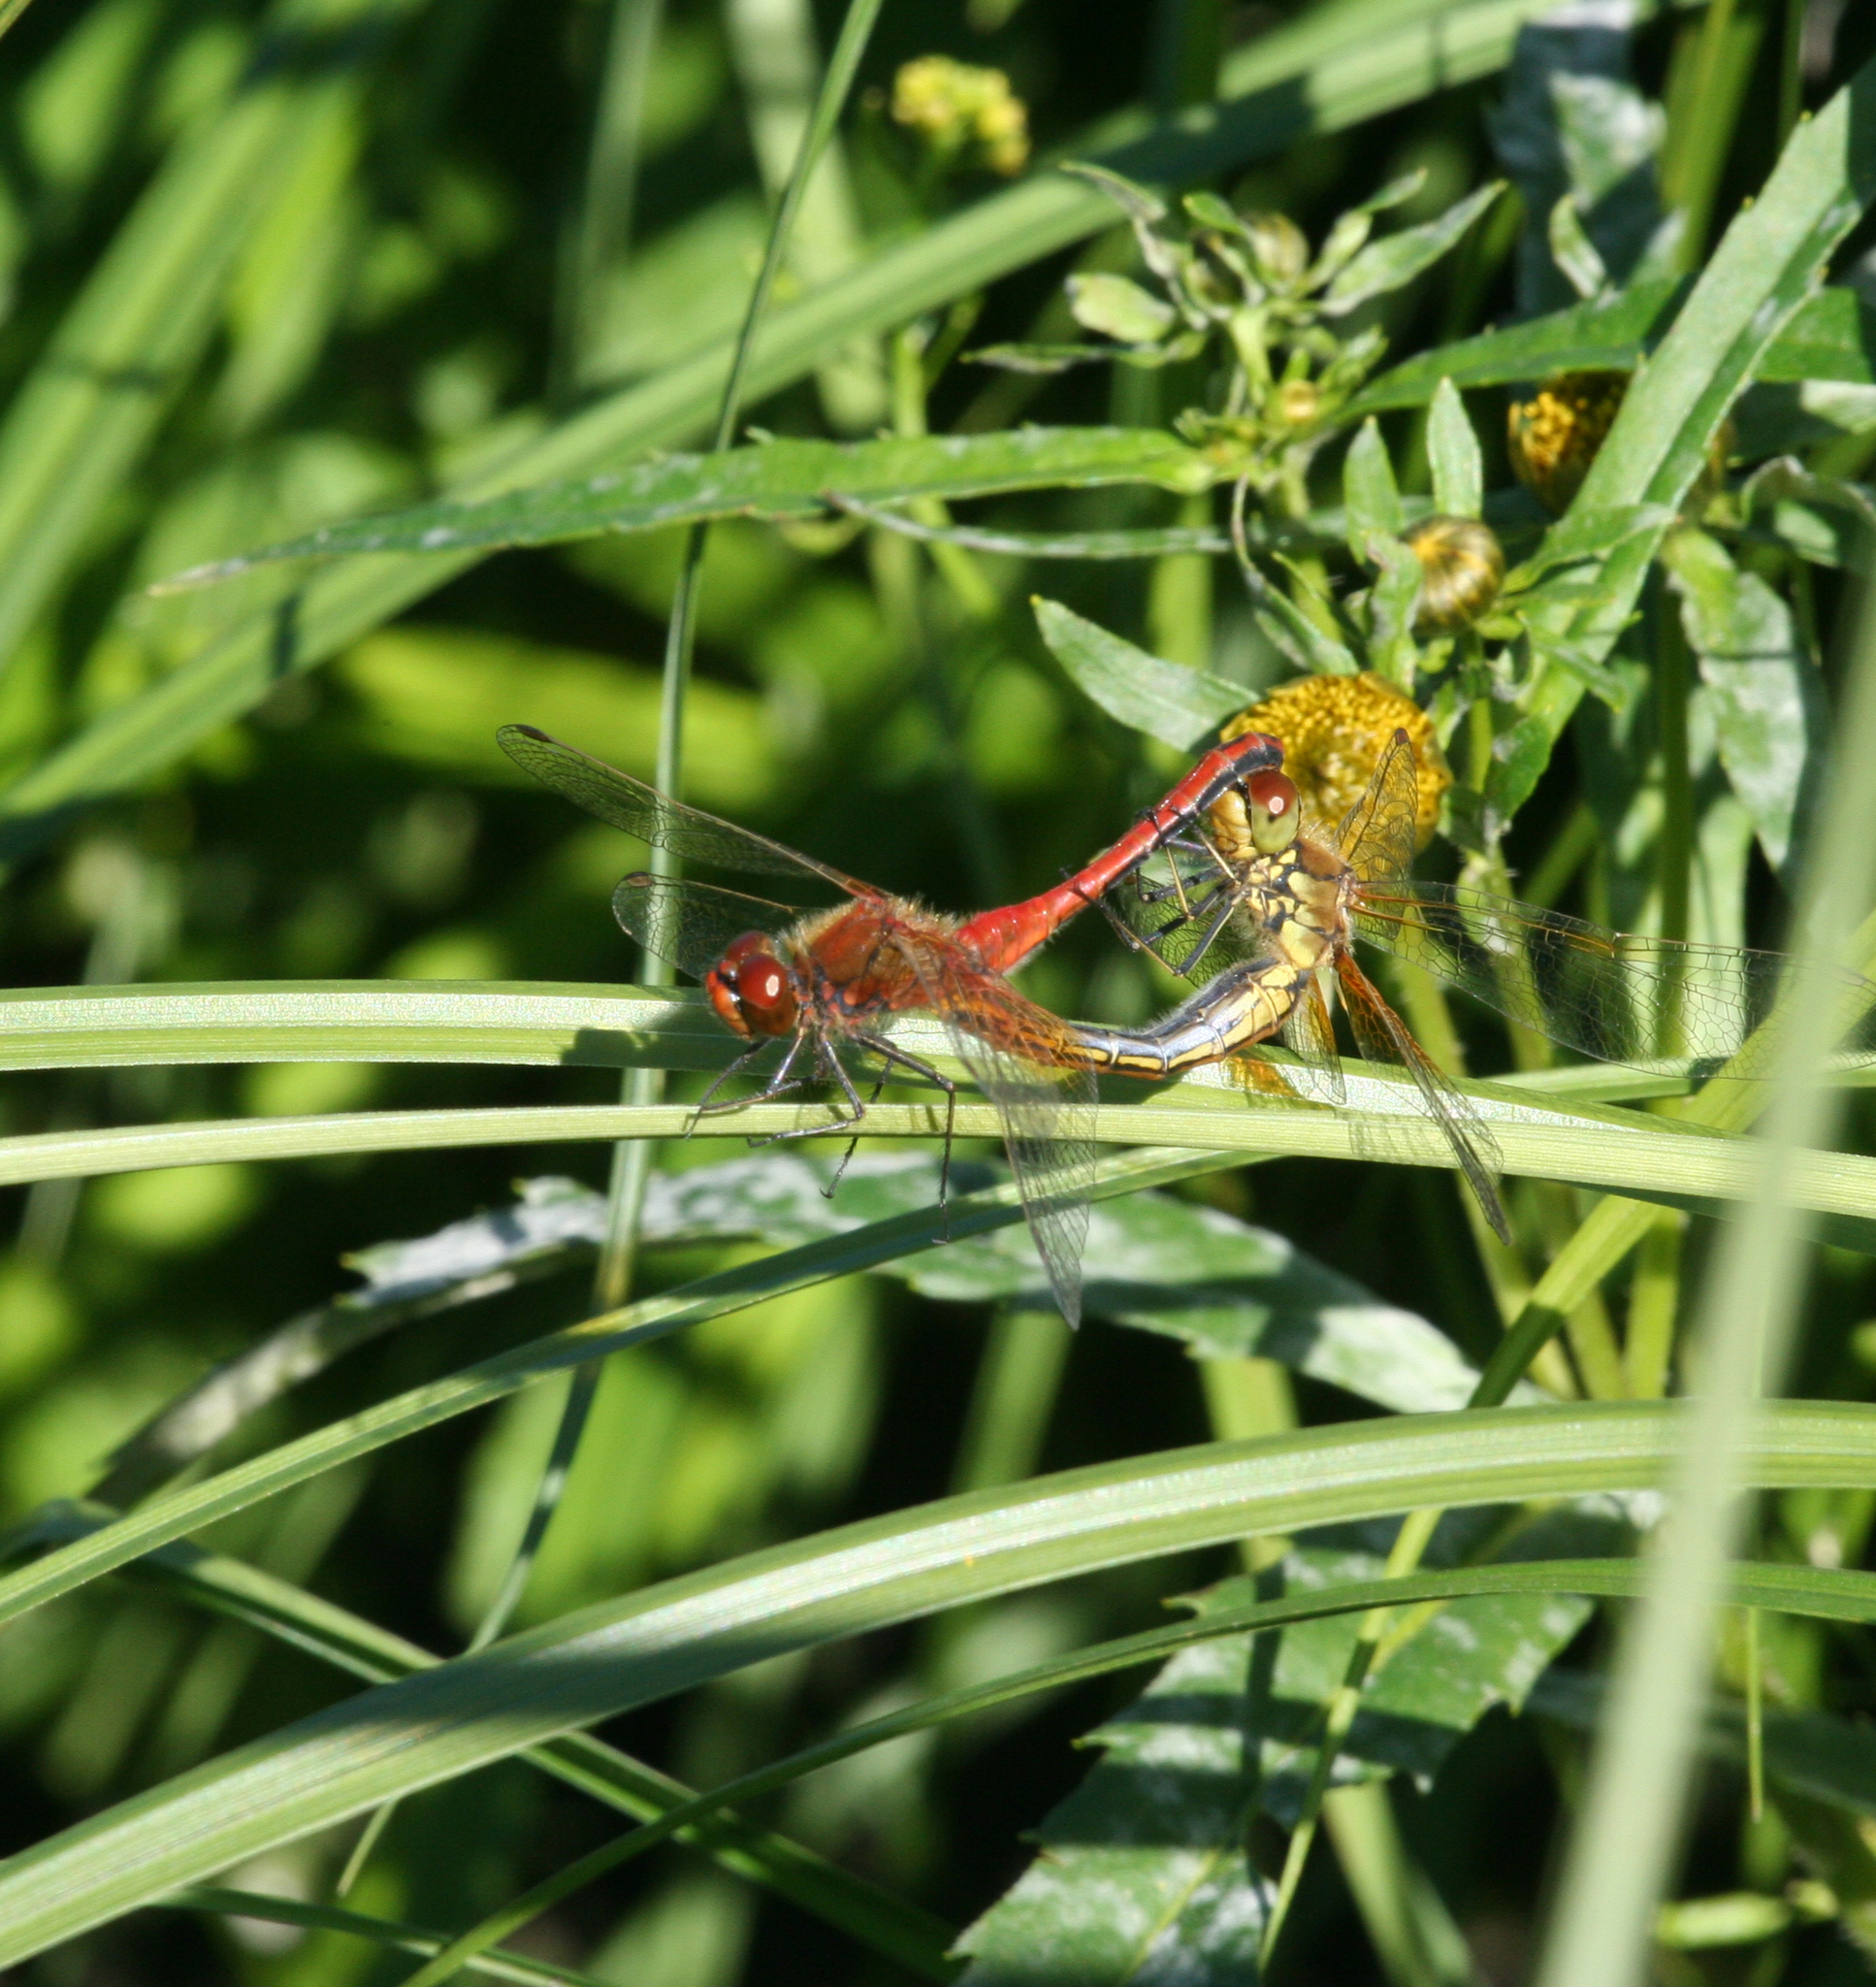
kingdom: Animalia
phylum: Arthropoda
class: Insecta
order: Odonata
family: Libellulidae
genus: Sympetrum
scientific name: Sympetrum flaveolum
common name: Yellow-winged darter
